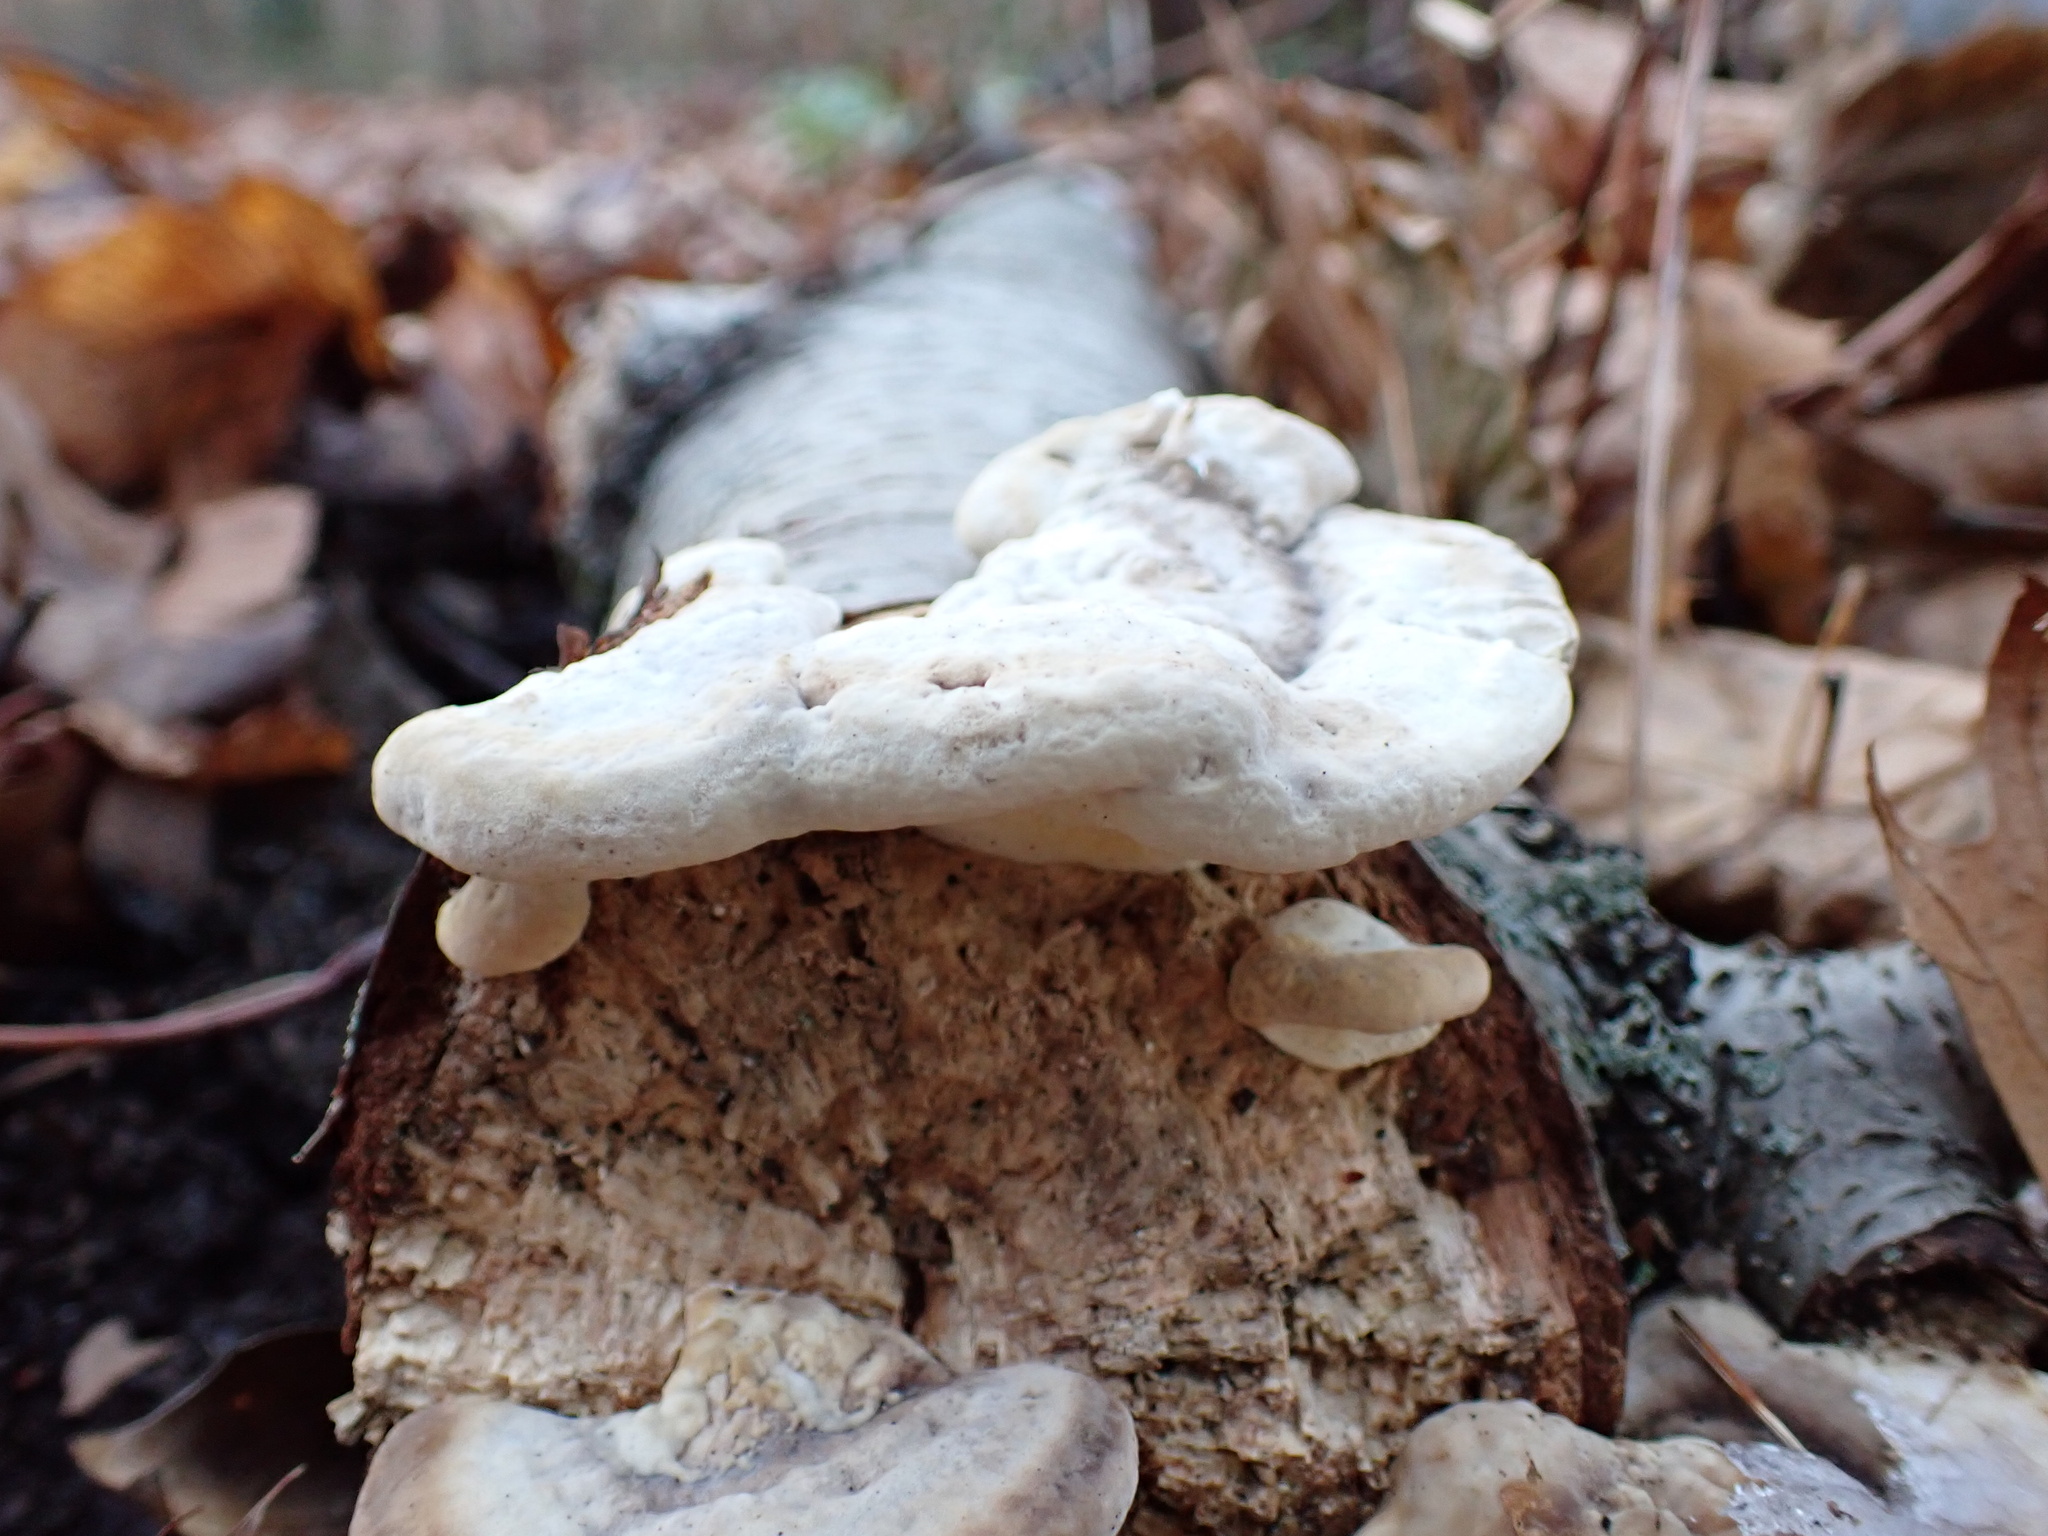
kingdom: Fungi
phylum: Basidiomycota
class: Agaricomycetes
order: Polyporales
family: Polyporaceae
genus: Trametes
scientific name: Trametes lactinea
